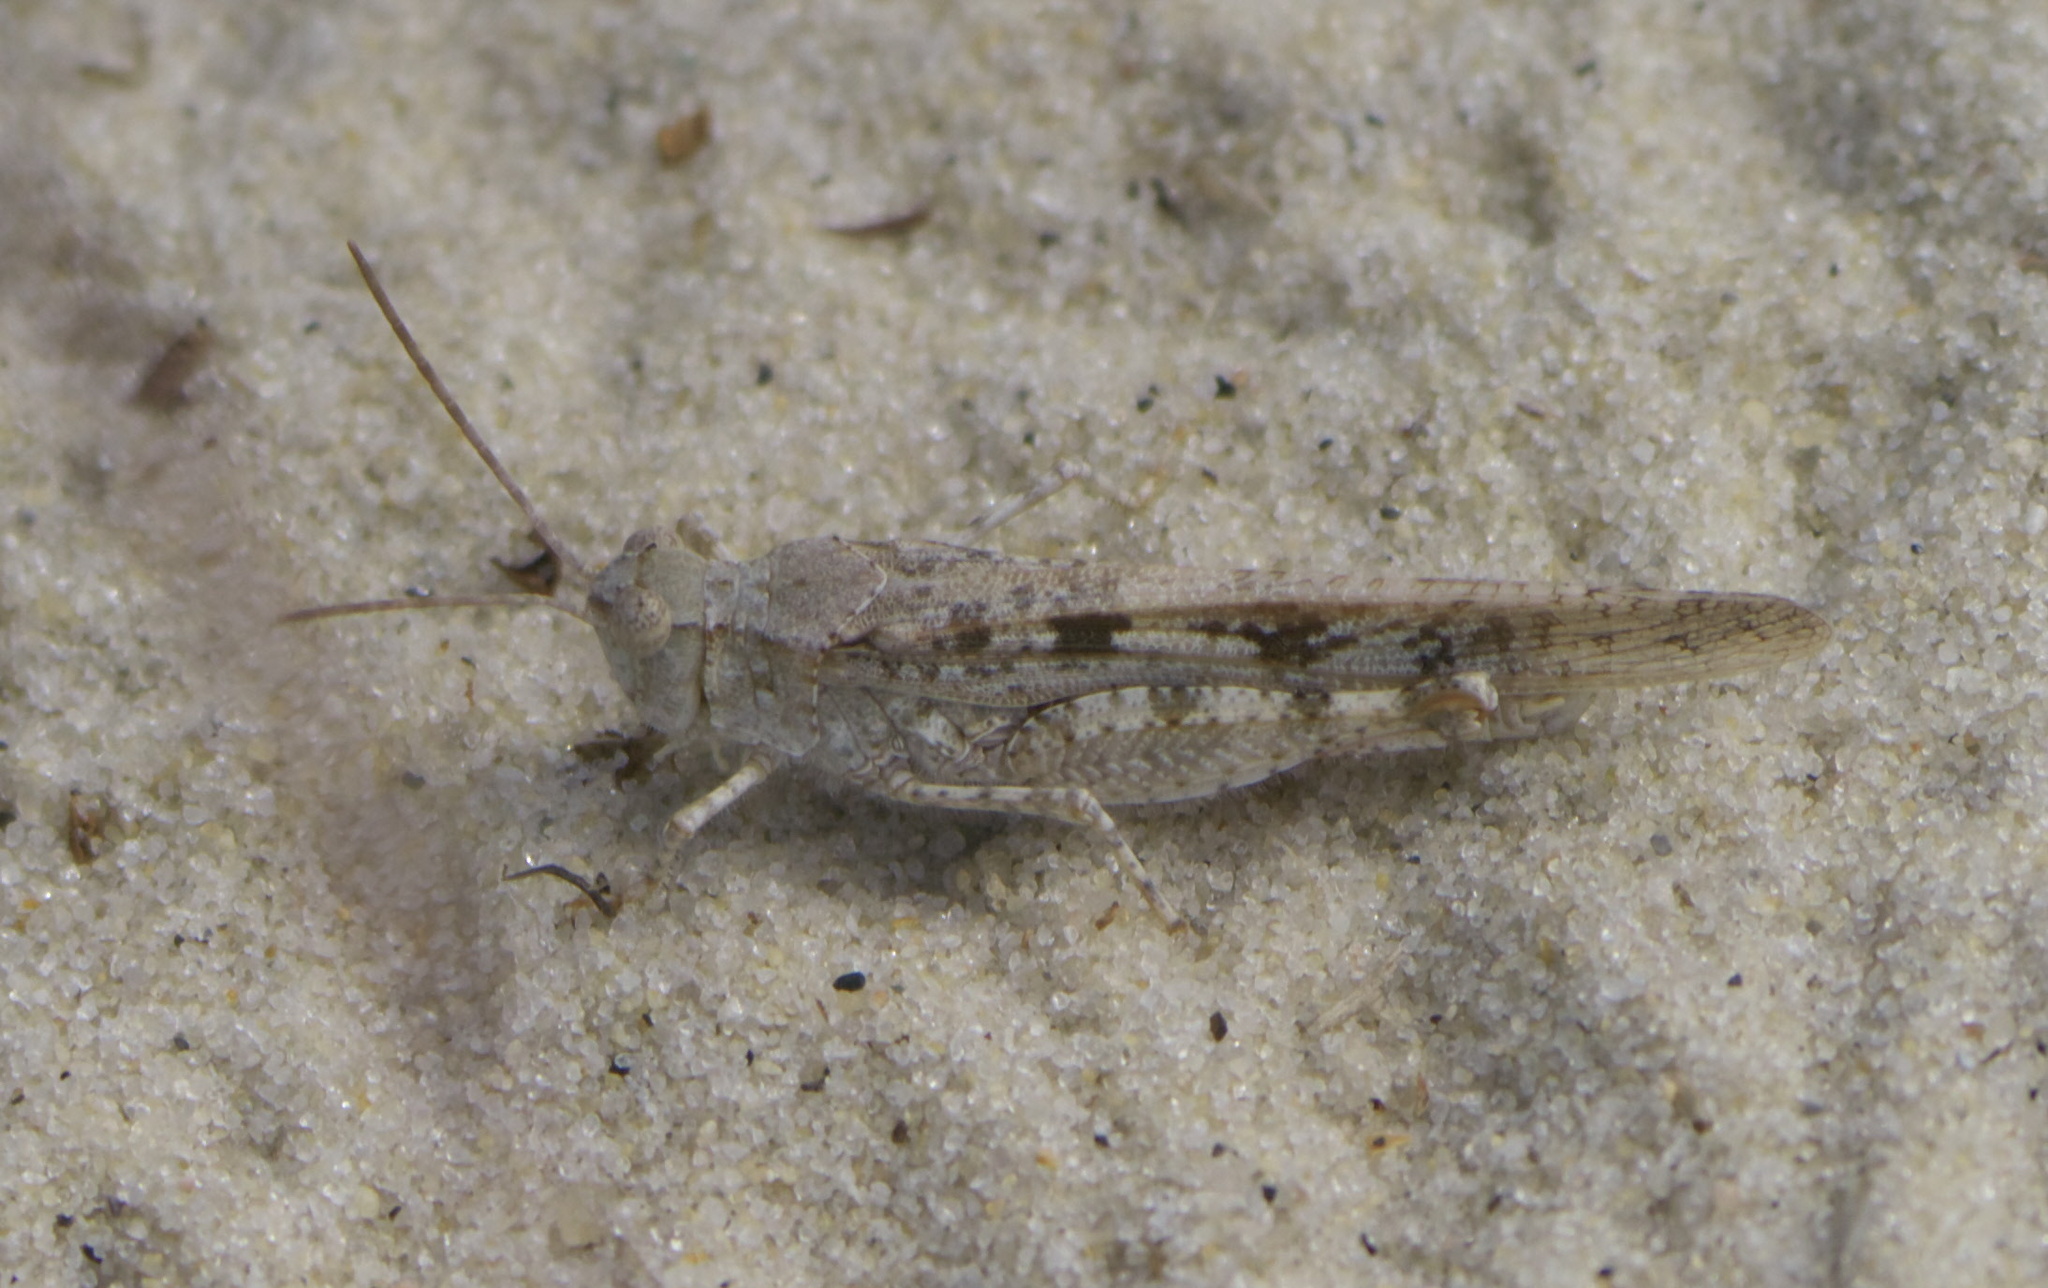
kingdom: Animalia
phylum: Arthropoda
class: Insecta
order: Orthoptera
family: Acrididae
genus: Trimerotropis
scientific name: Trimerotropis maritima
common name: Seaside locust
